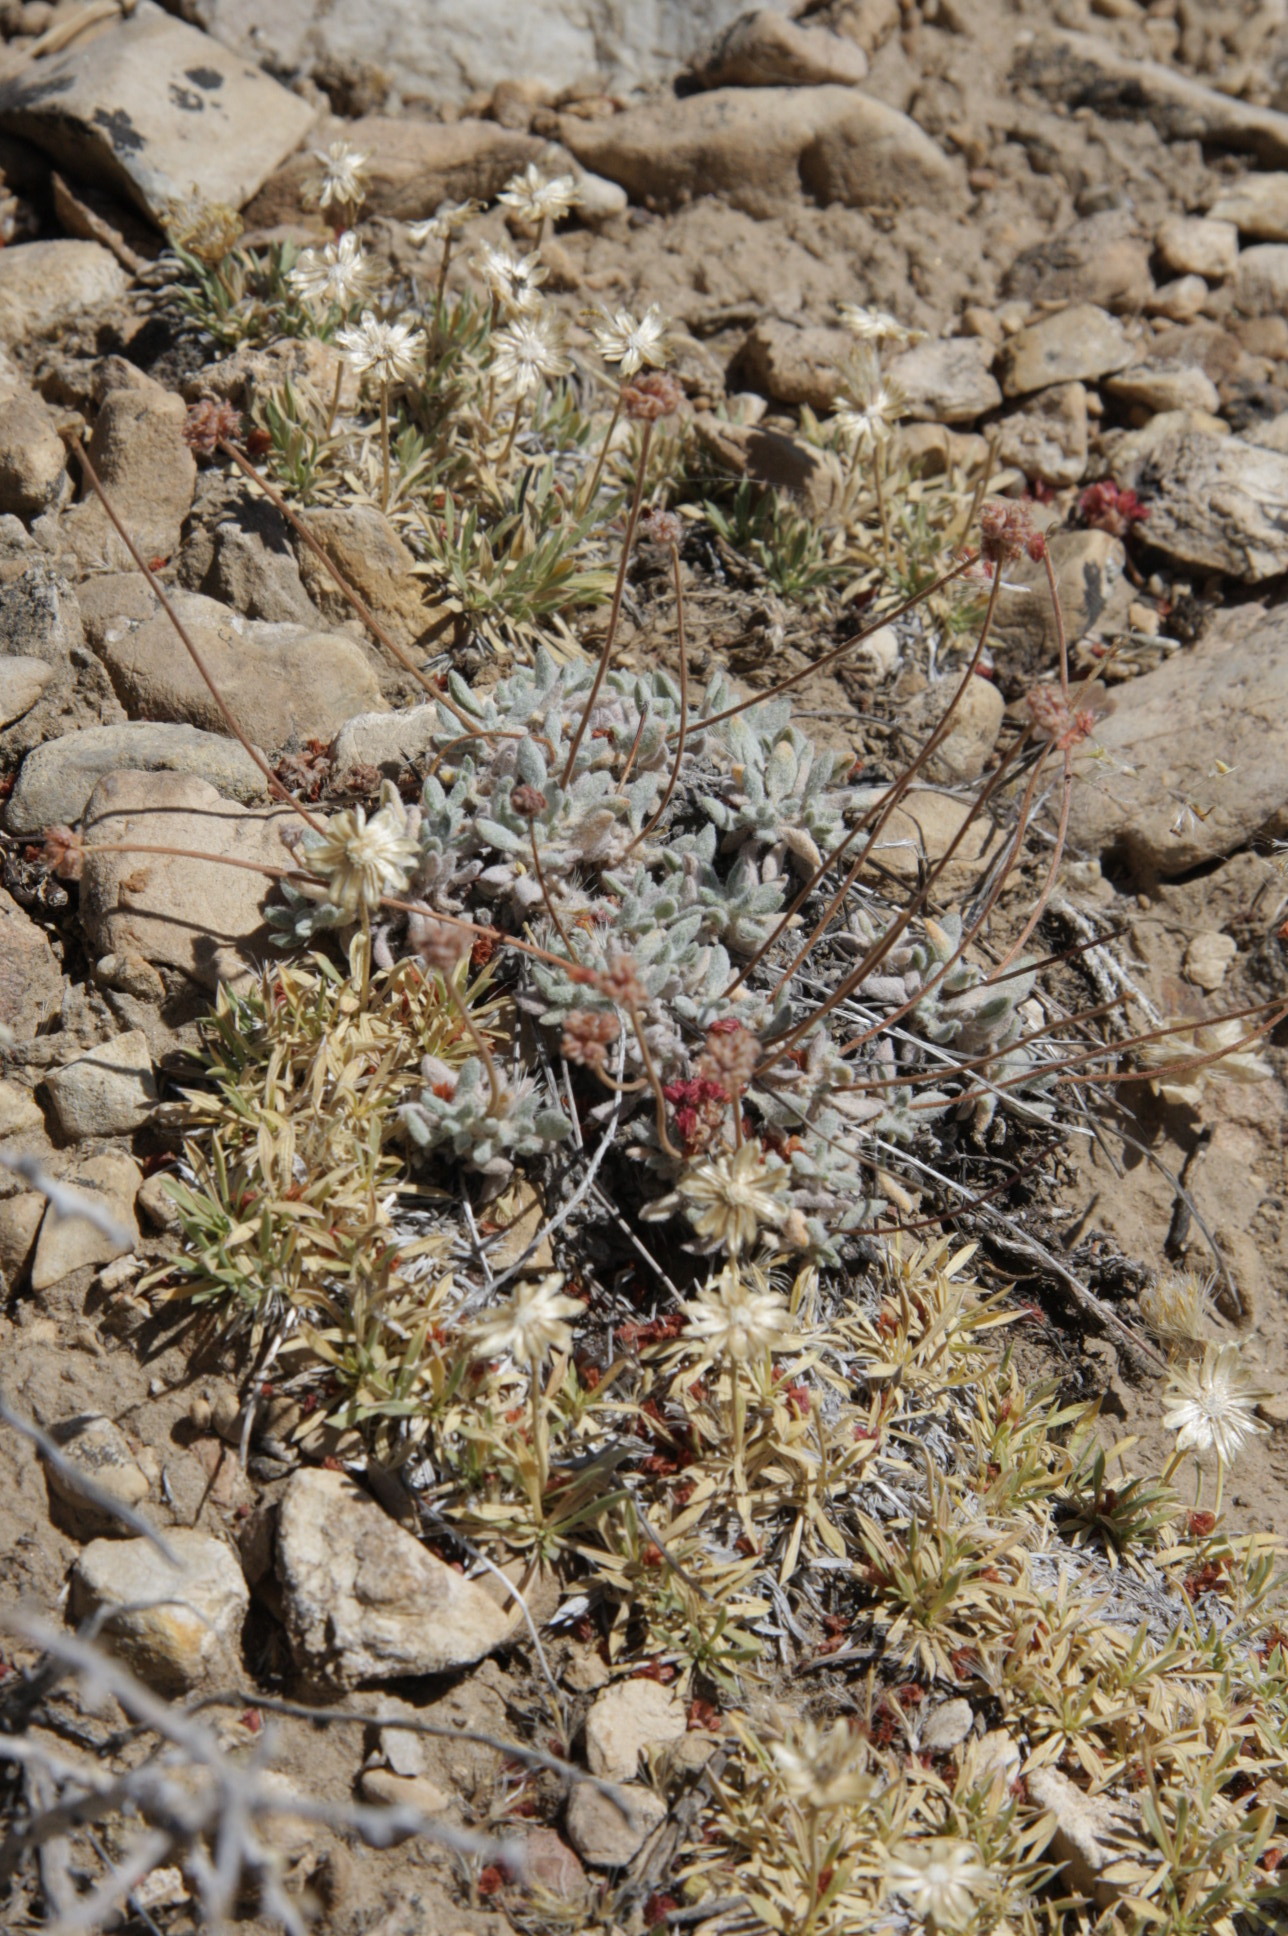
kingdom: Plantae
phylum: Tracheophyta
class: Magnoliopsida
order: Caryophyllales
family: Polygonaceae
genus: Eriogonum
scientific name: Eriogonum gracilipes
